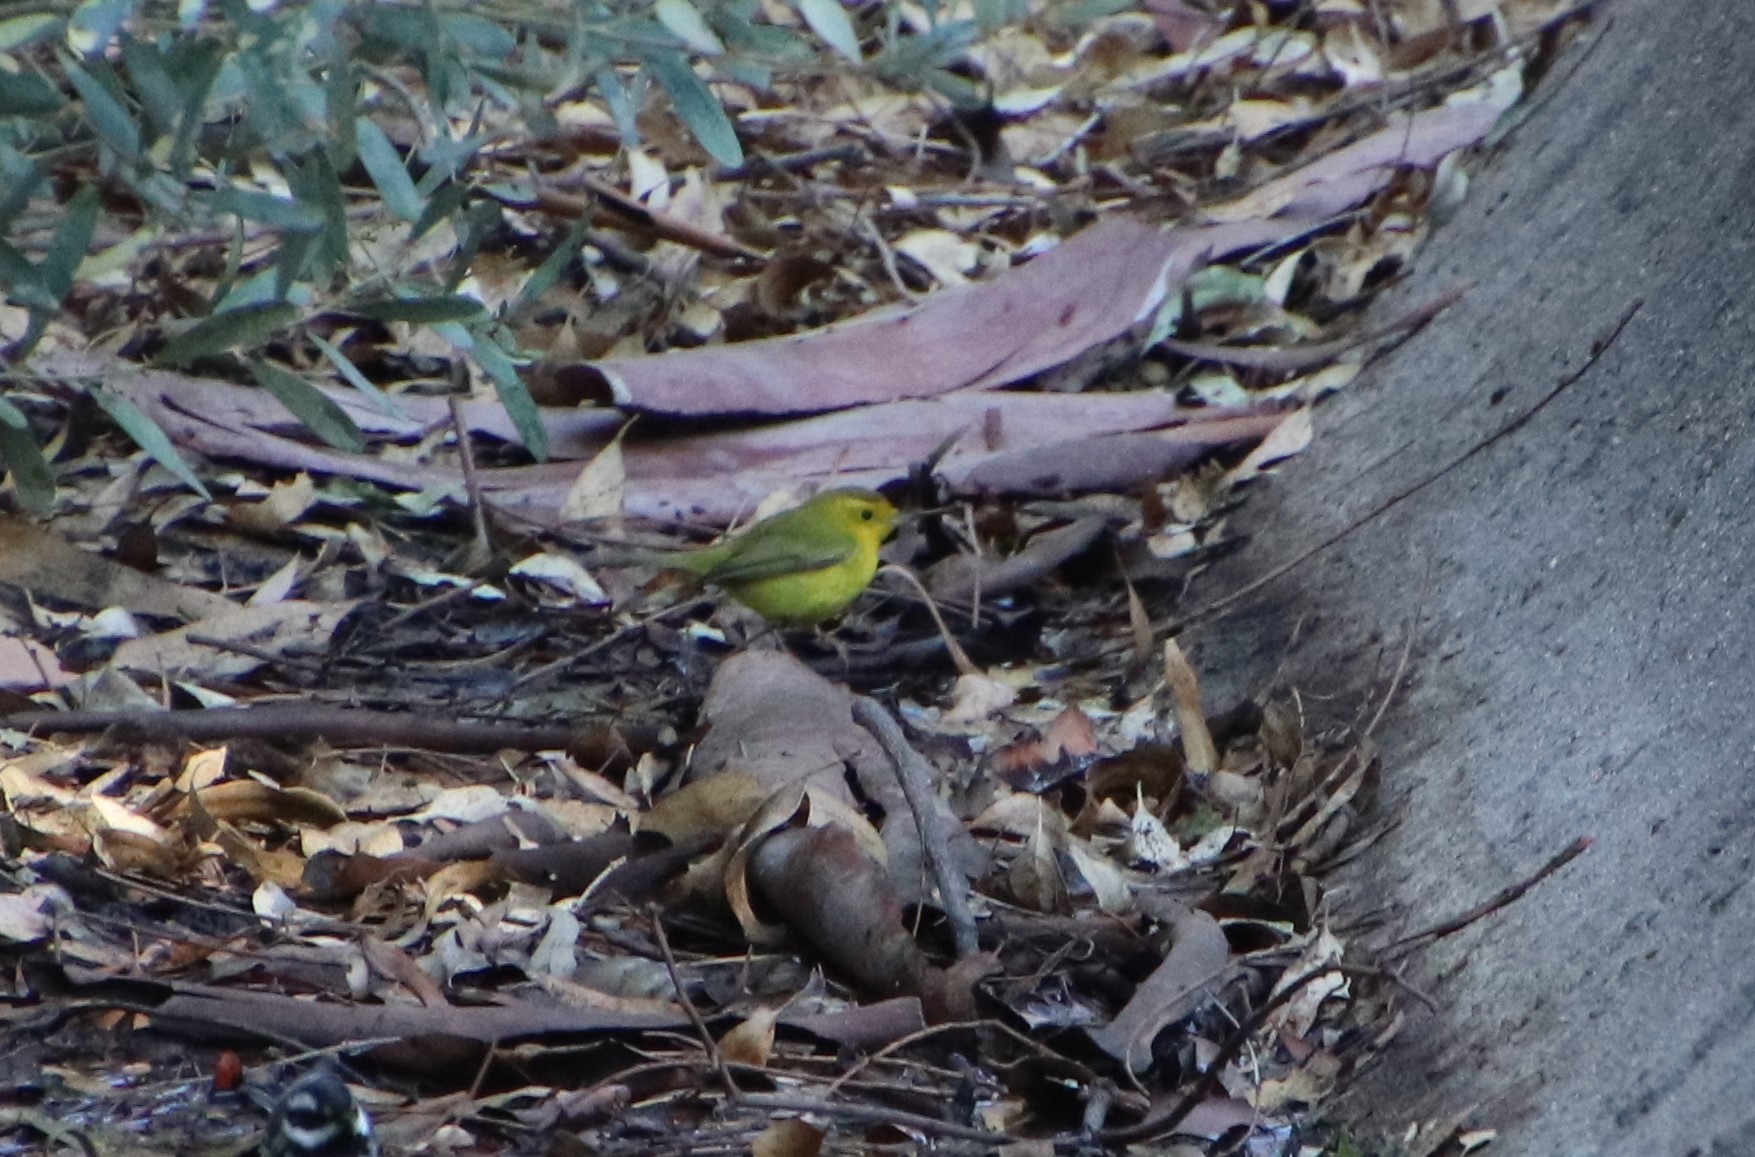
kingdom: Animalia
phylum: Chordata
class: Aves
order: Passeriformes
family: Parulidae
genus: Cardellina
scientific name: Cardellina pusilla
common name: Wilson's warbler
